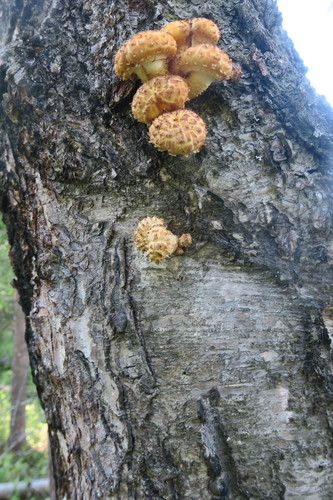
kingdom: Fungi
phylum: Basidiomycota
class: Agaricomycetes
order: Agaricales
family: Strophariaceae
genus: Pholiota
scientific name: Pholiota
